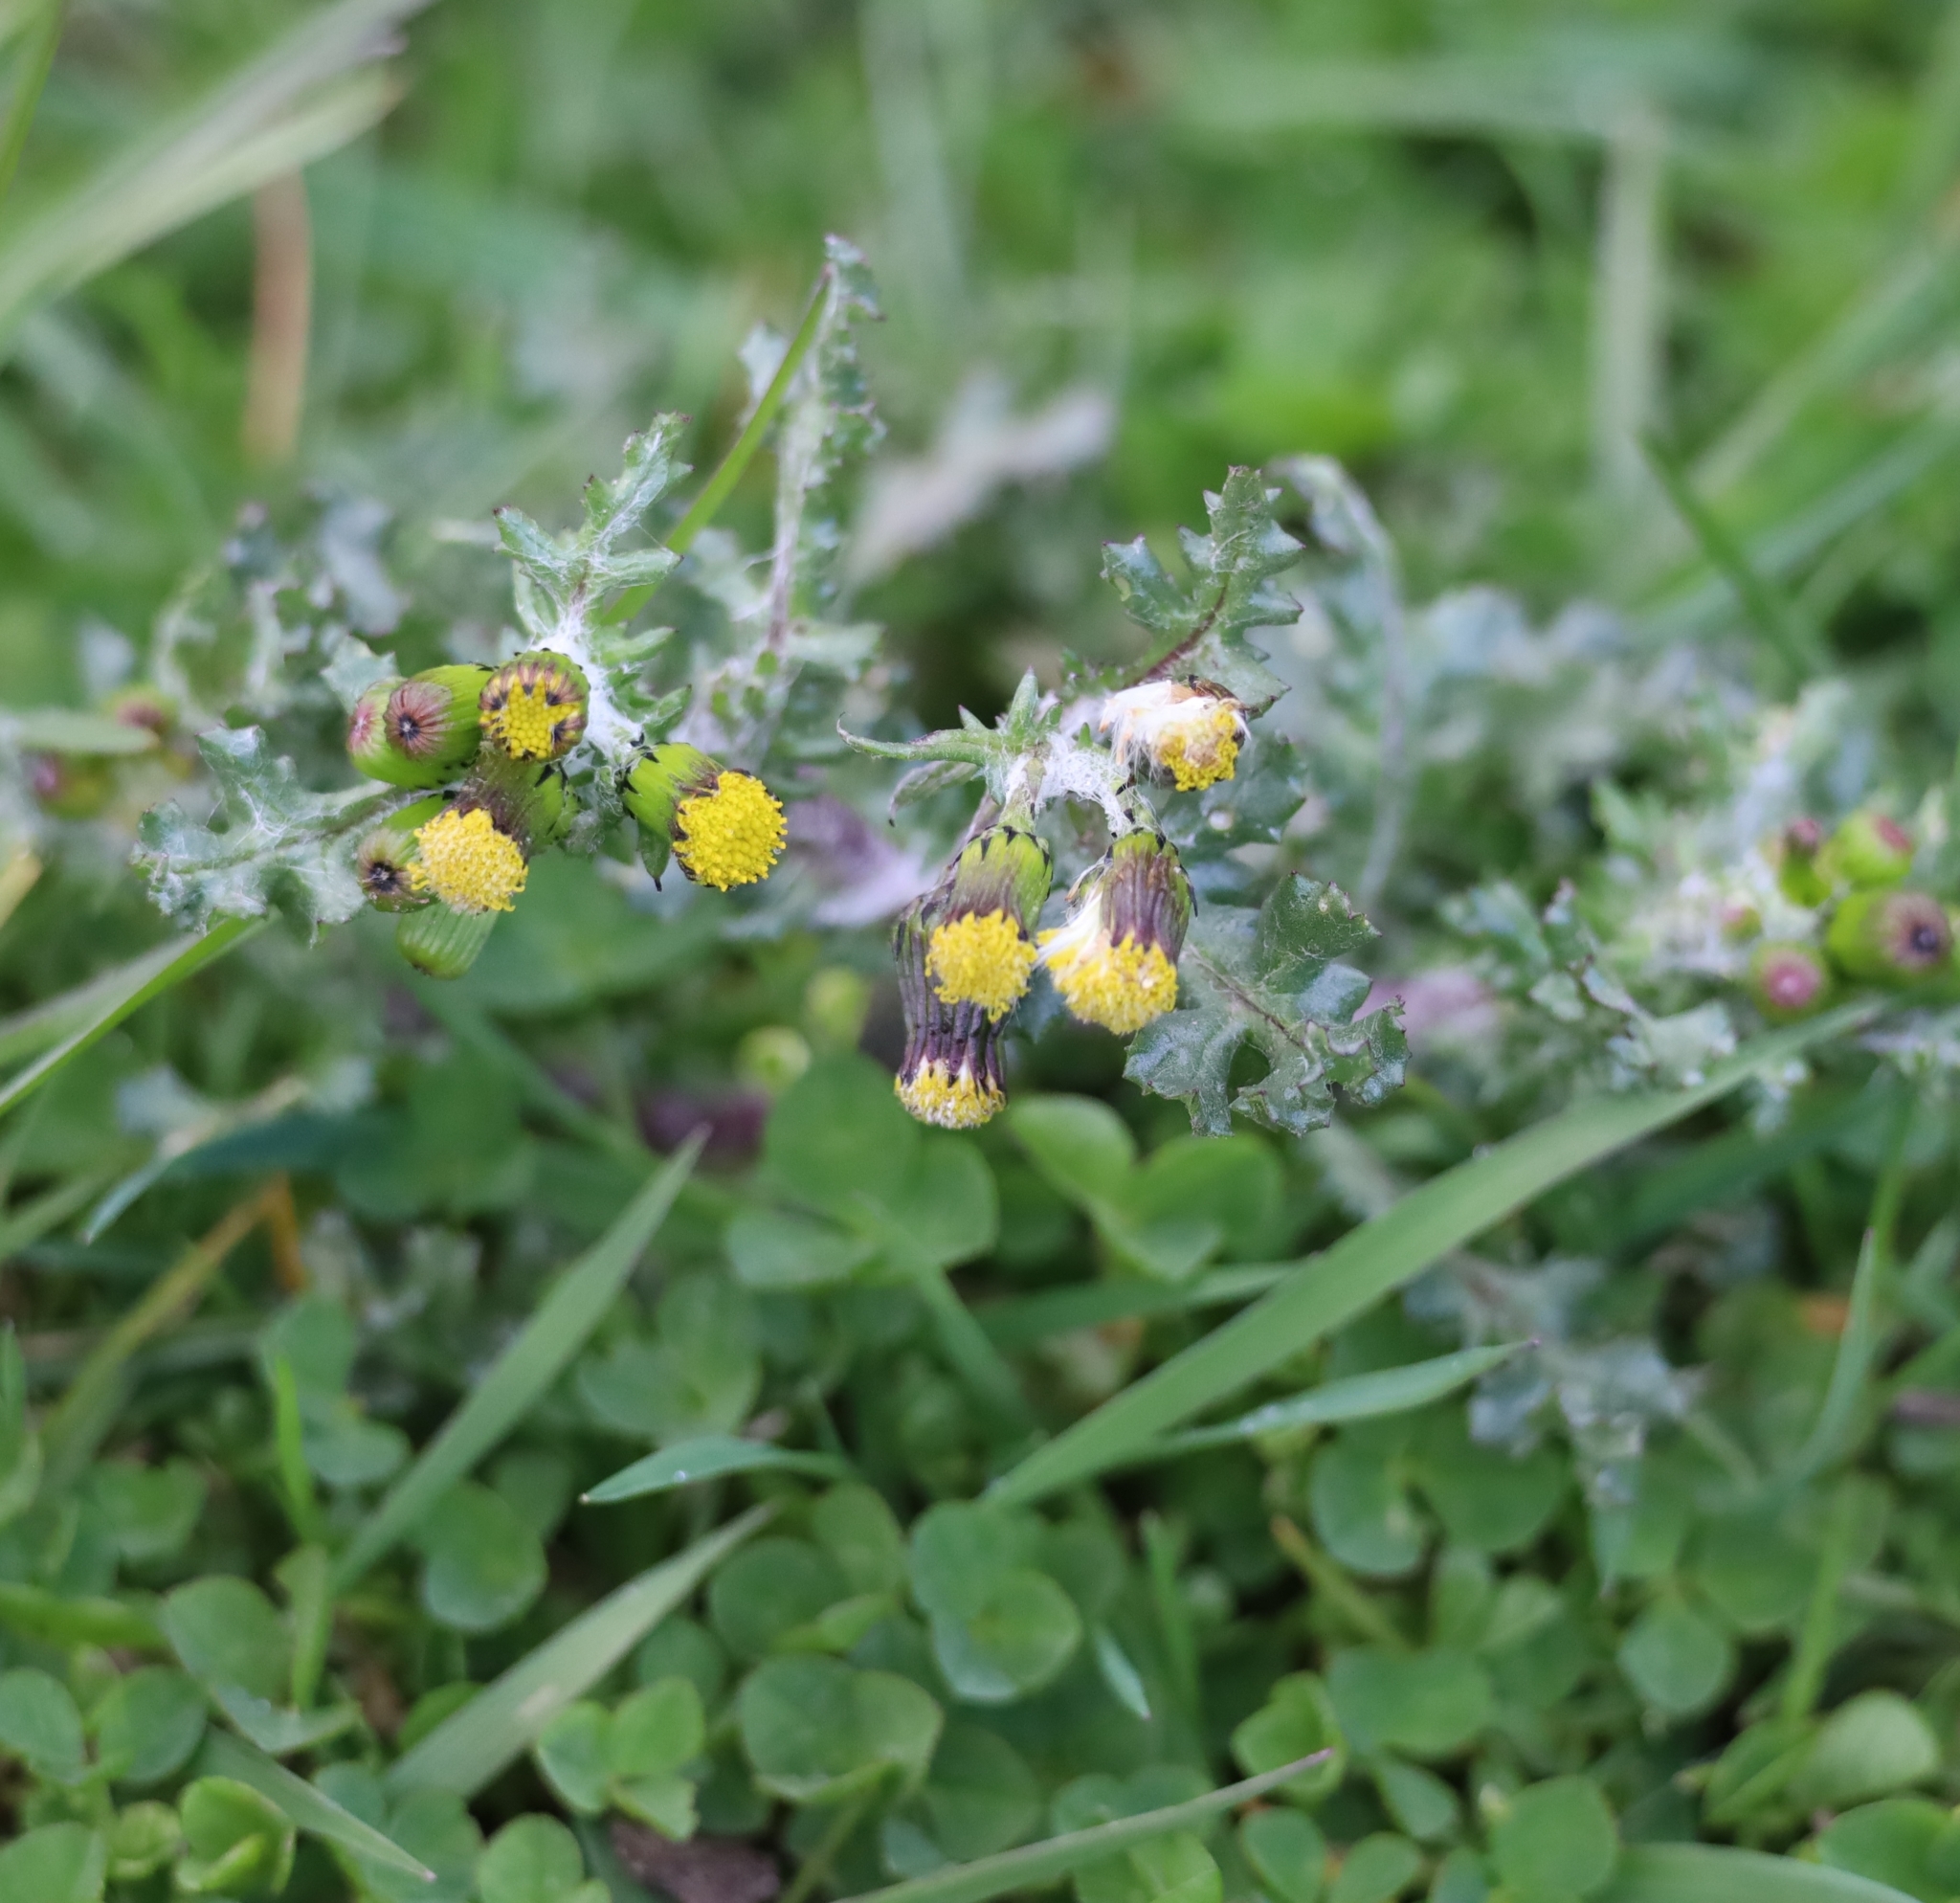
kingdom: Plantae
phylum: Tracheophyta
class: Magnoliopsida
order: Asterales
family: Asteraceae
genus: Senecio
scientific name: Senecio vulgaris
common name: Old-man-in-the-spring
